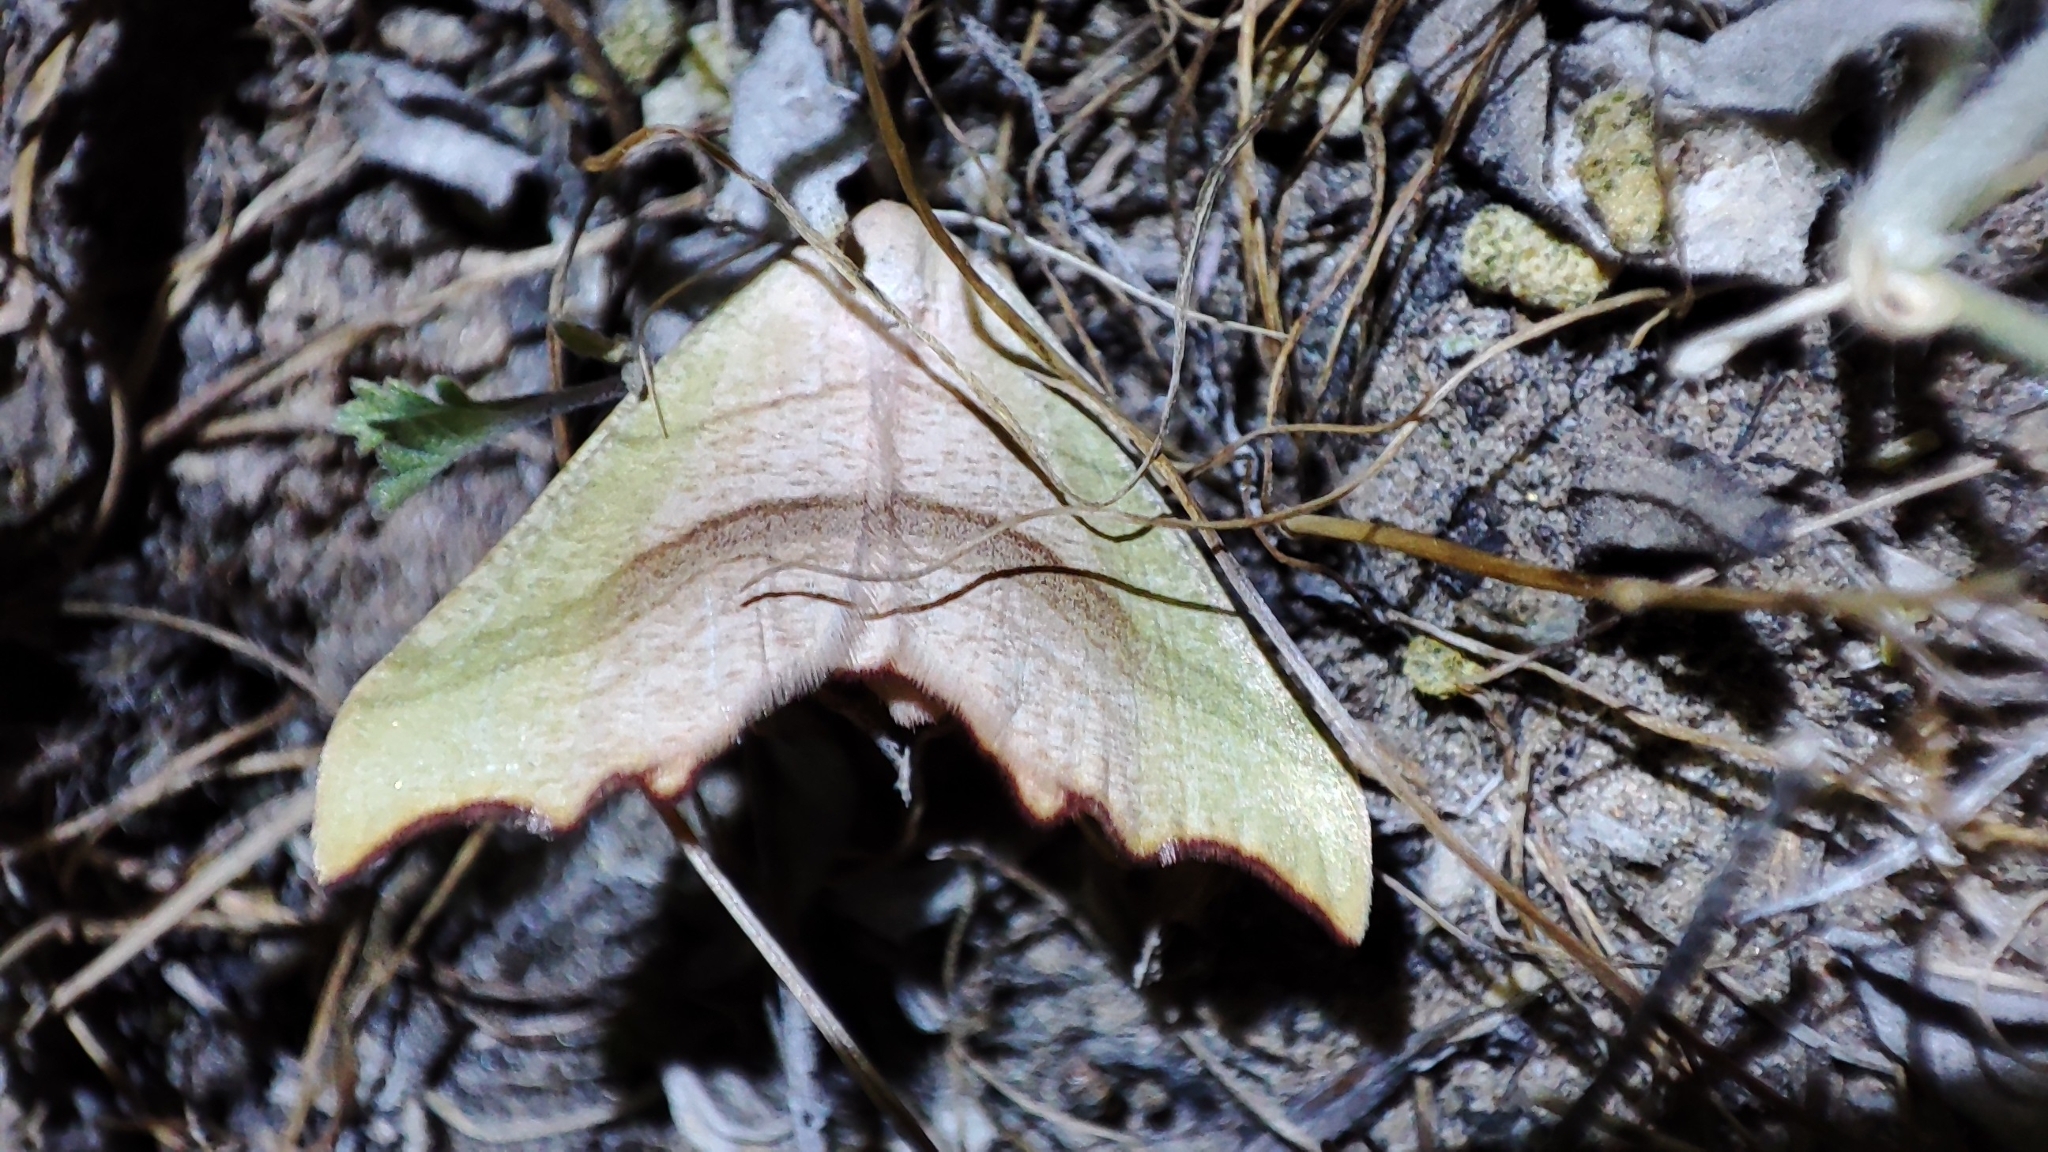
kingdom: Animalia
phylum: Arthropoda
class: Insecta
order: Lepidoptera
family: Geometridae
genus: Ochodontia
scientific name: Ochodontia adustaria
